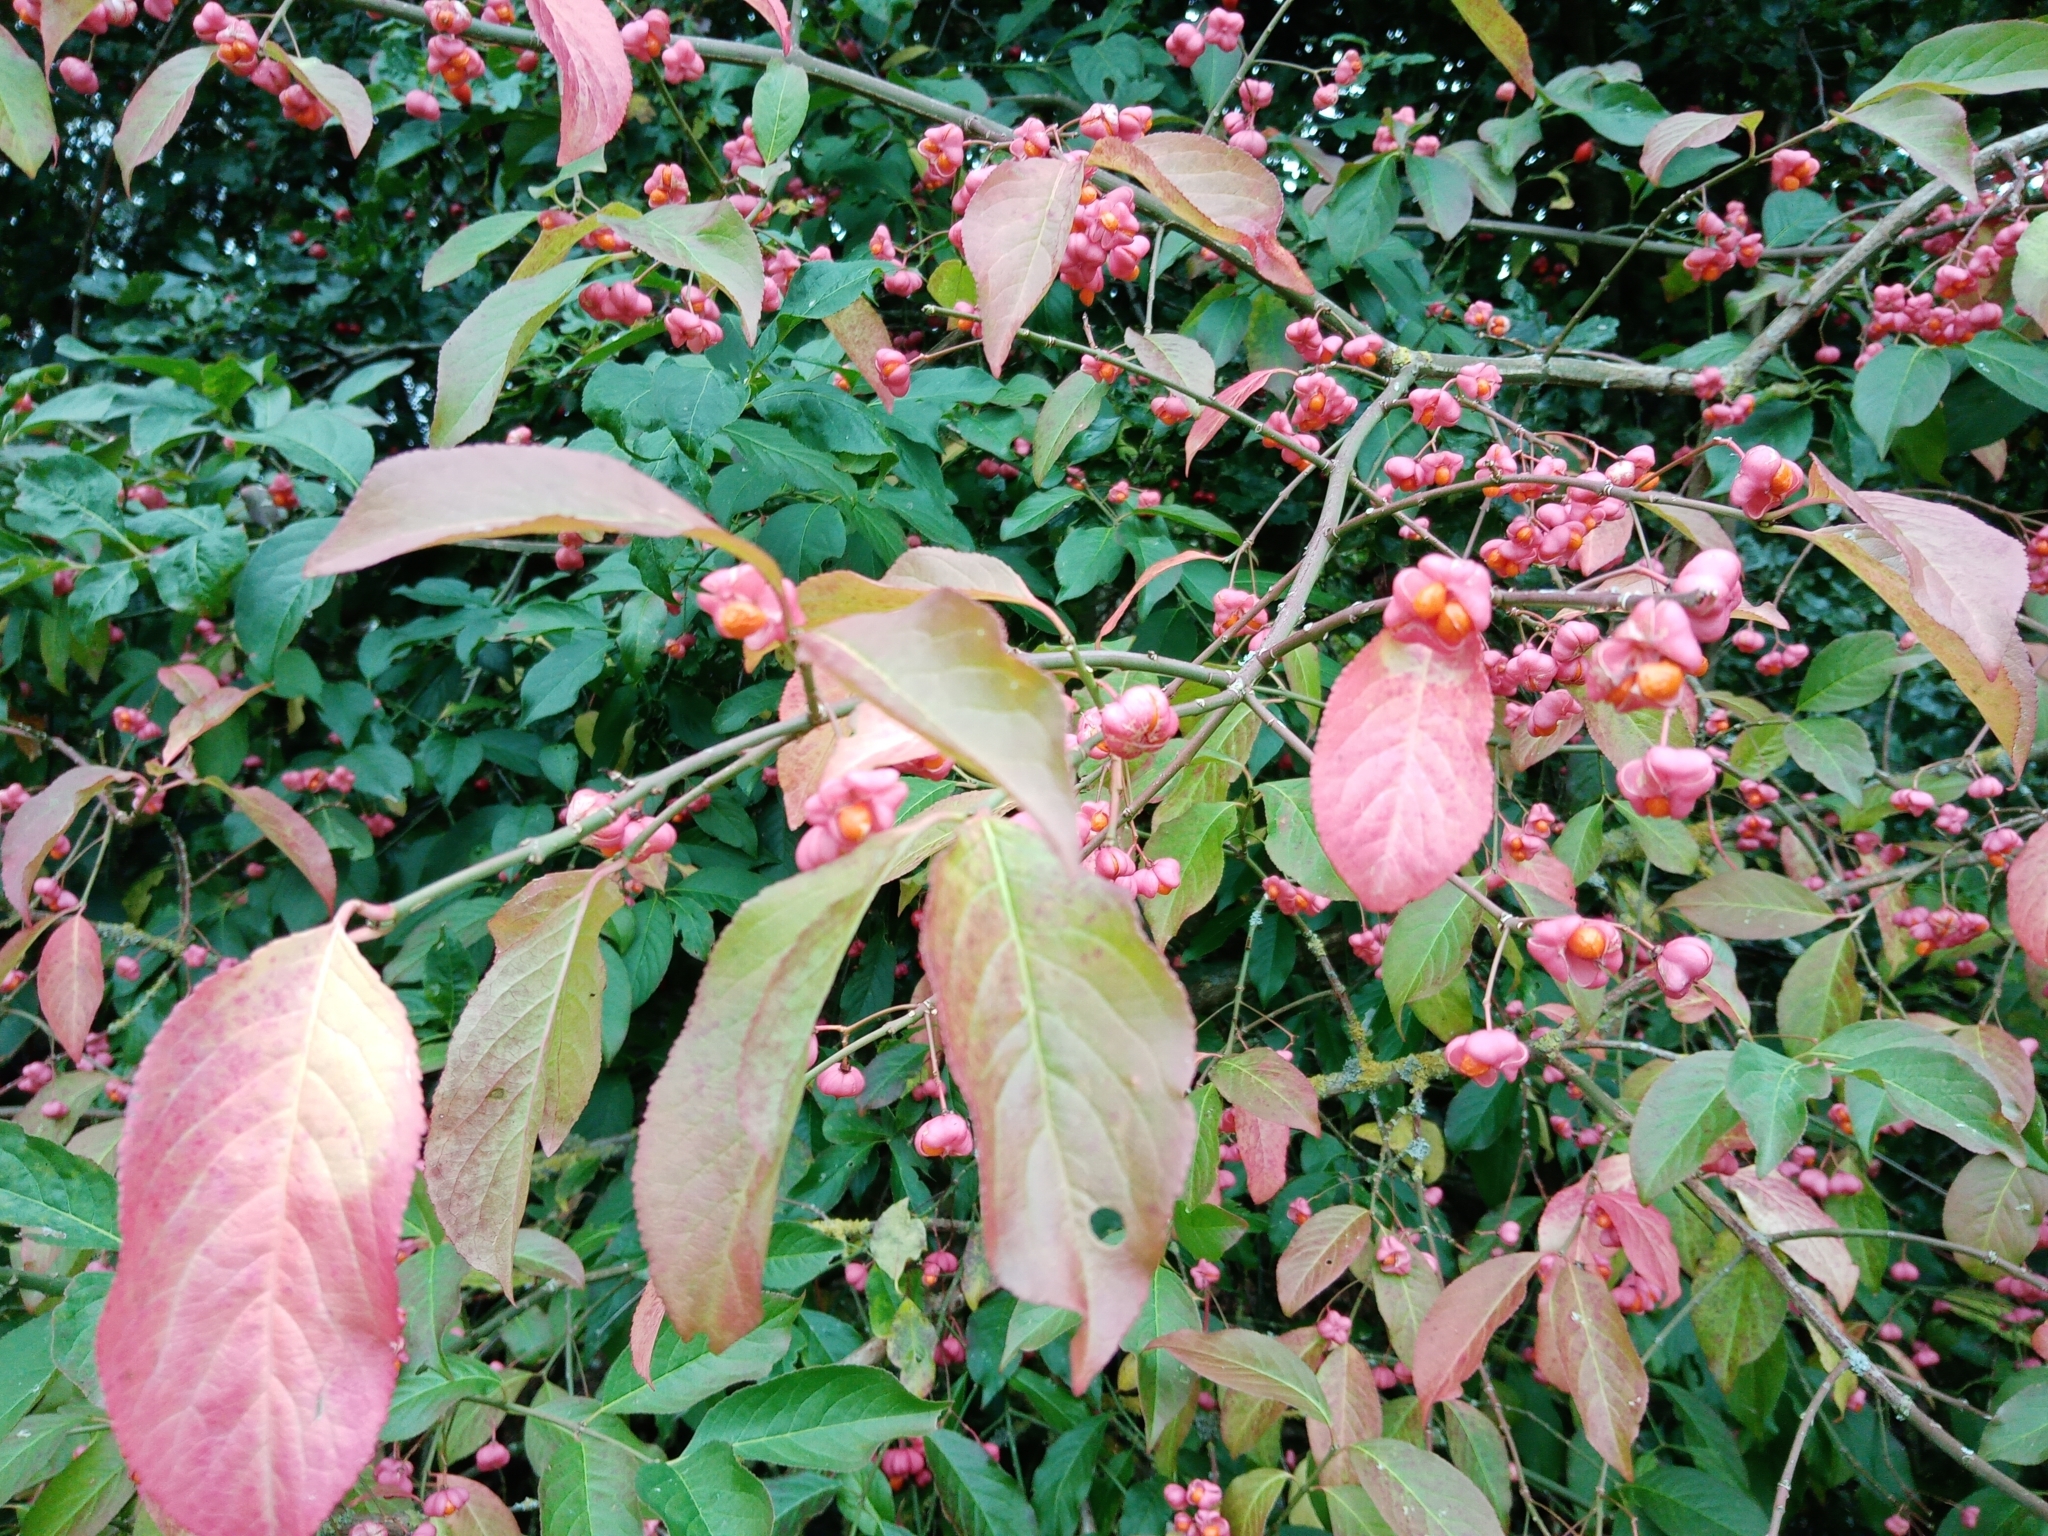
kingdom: Plantae
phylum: Tracheophyta
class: Magnoliopsida
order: Celastrales
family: Celastraceae
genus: Euonymus
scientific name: Euonymus europaeus
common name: Spindle
